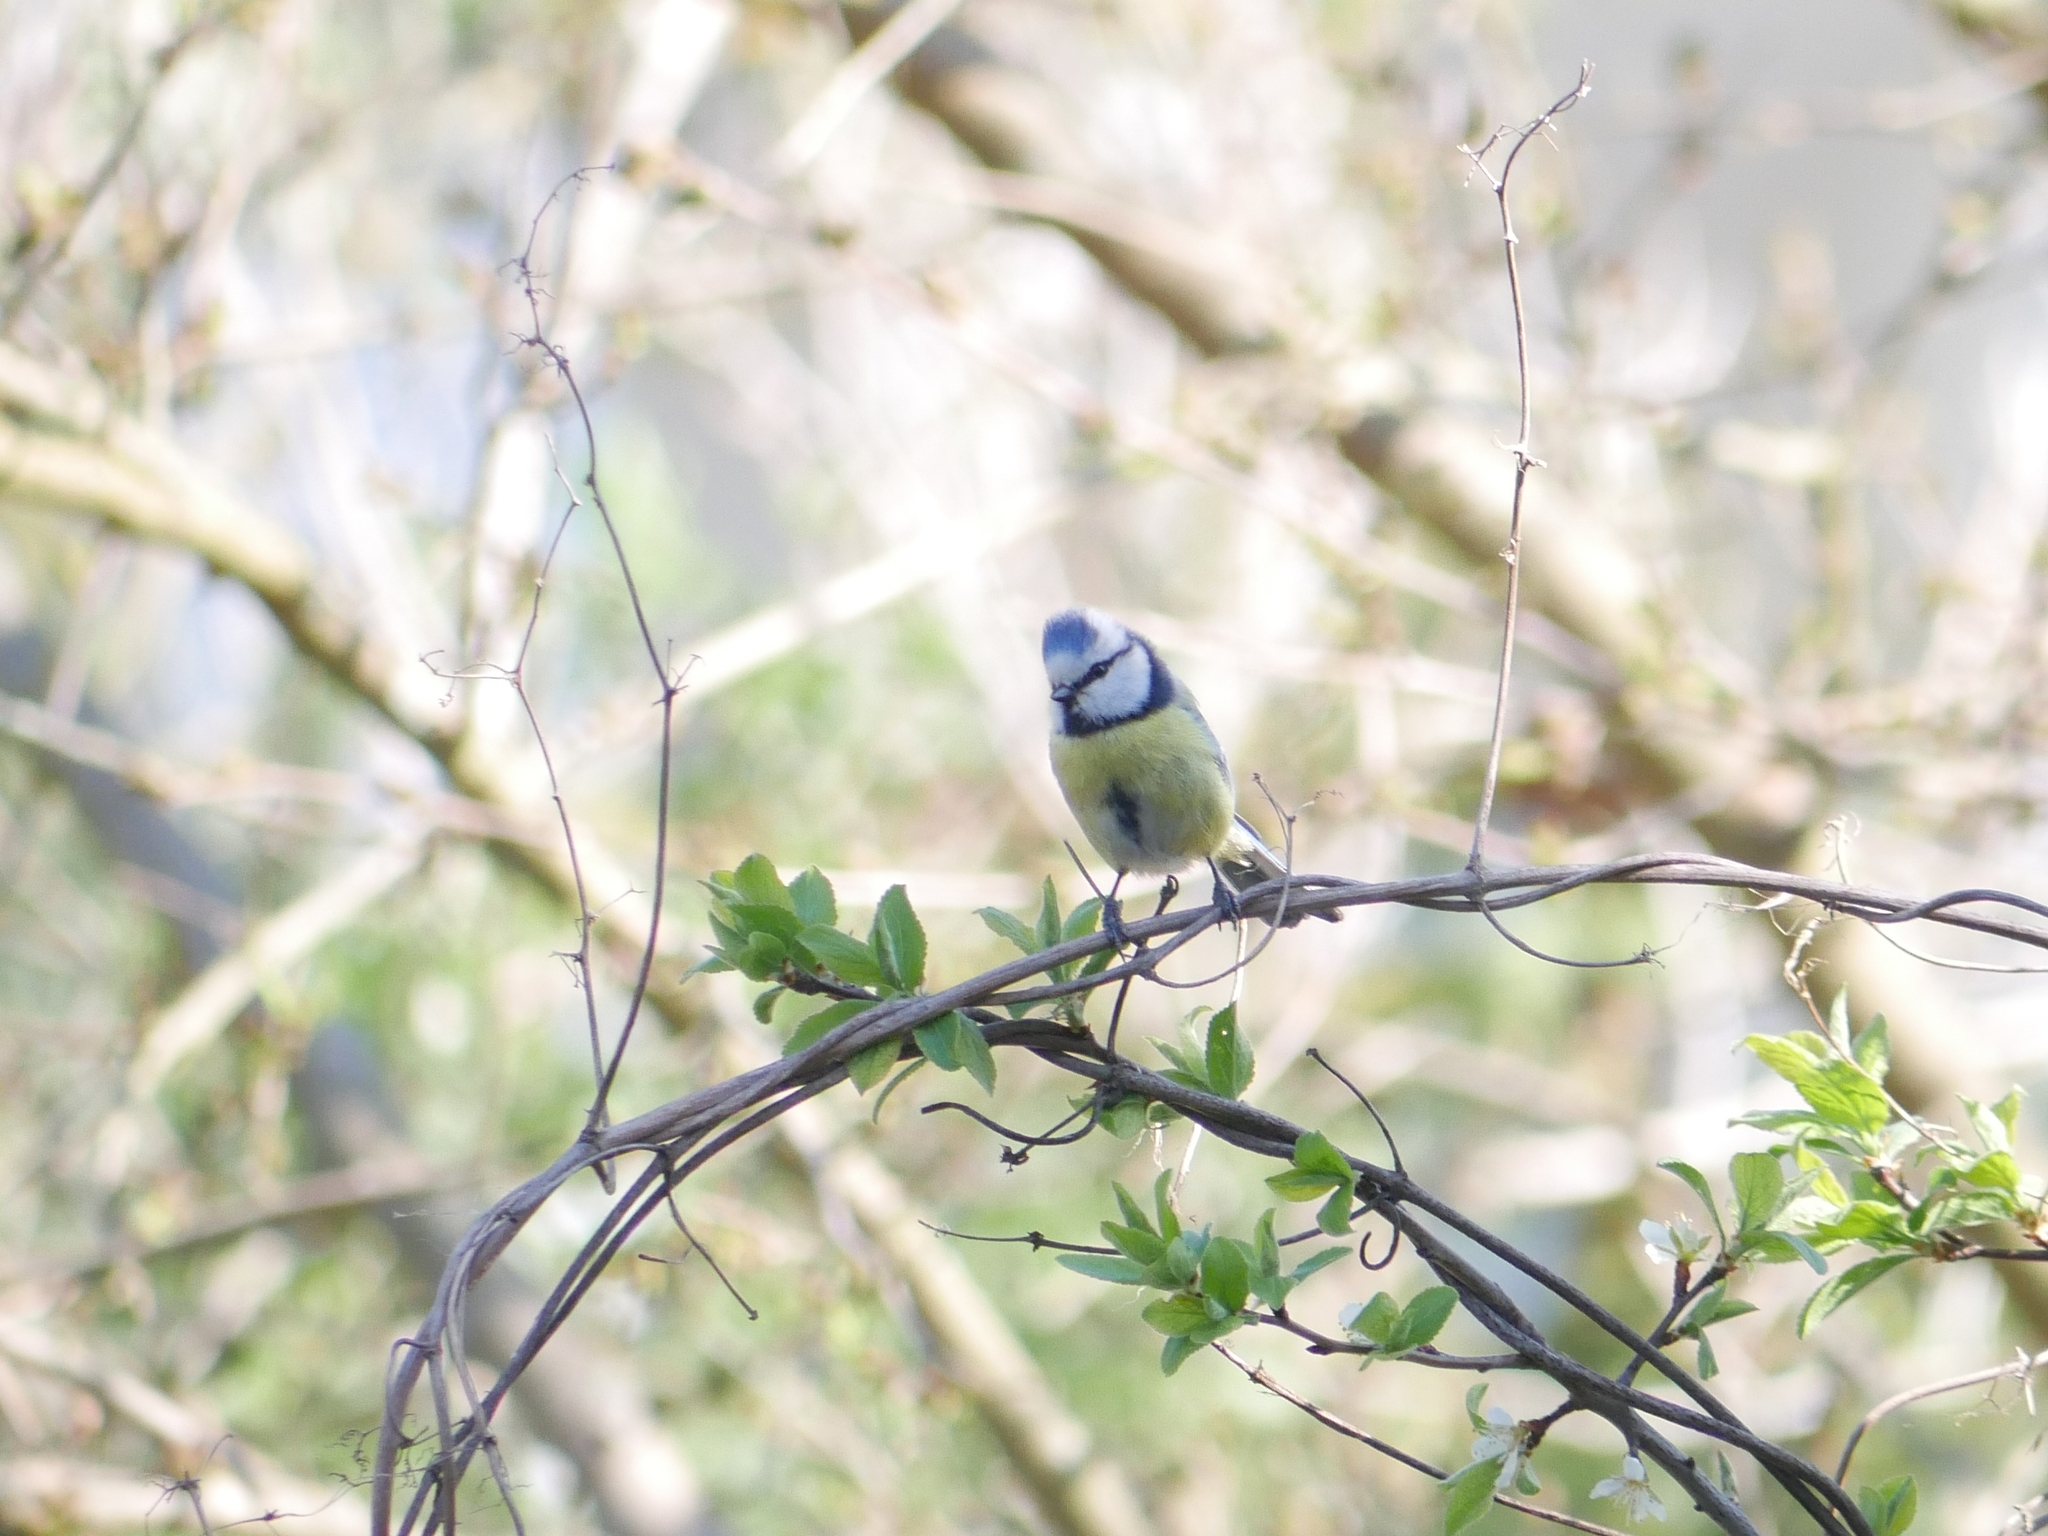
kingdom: Animalia
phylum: Chordata
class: Aves
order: Passeriformes
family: Paridae
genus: Cyanistes
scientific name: Cyanistes caeruleus
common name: Eurasian blue tit
